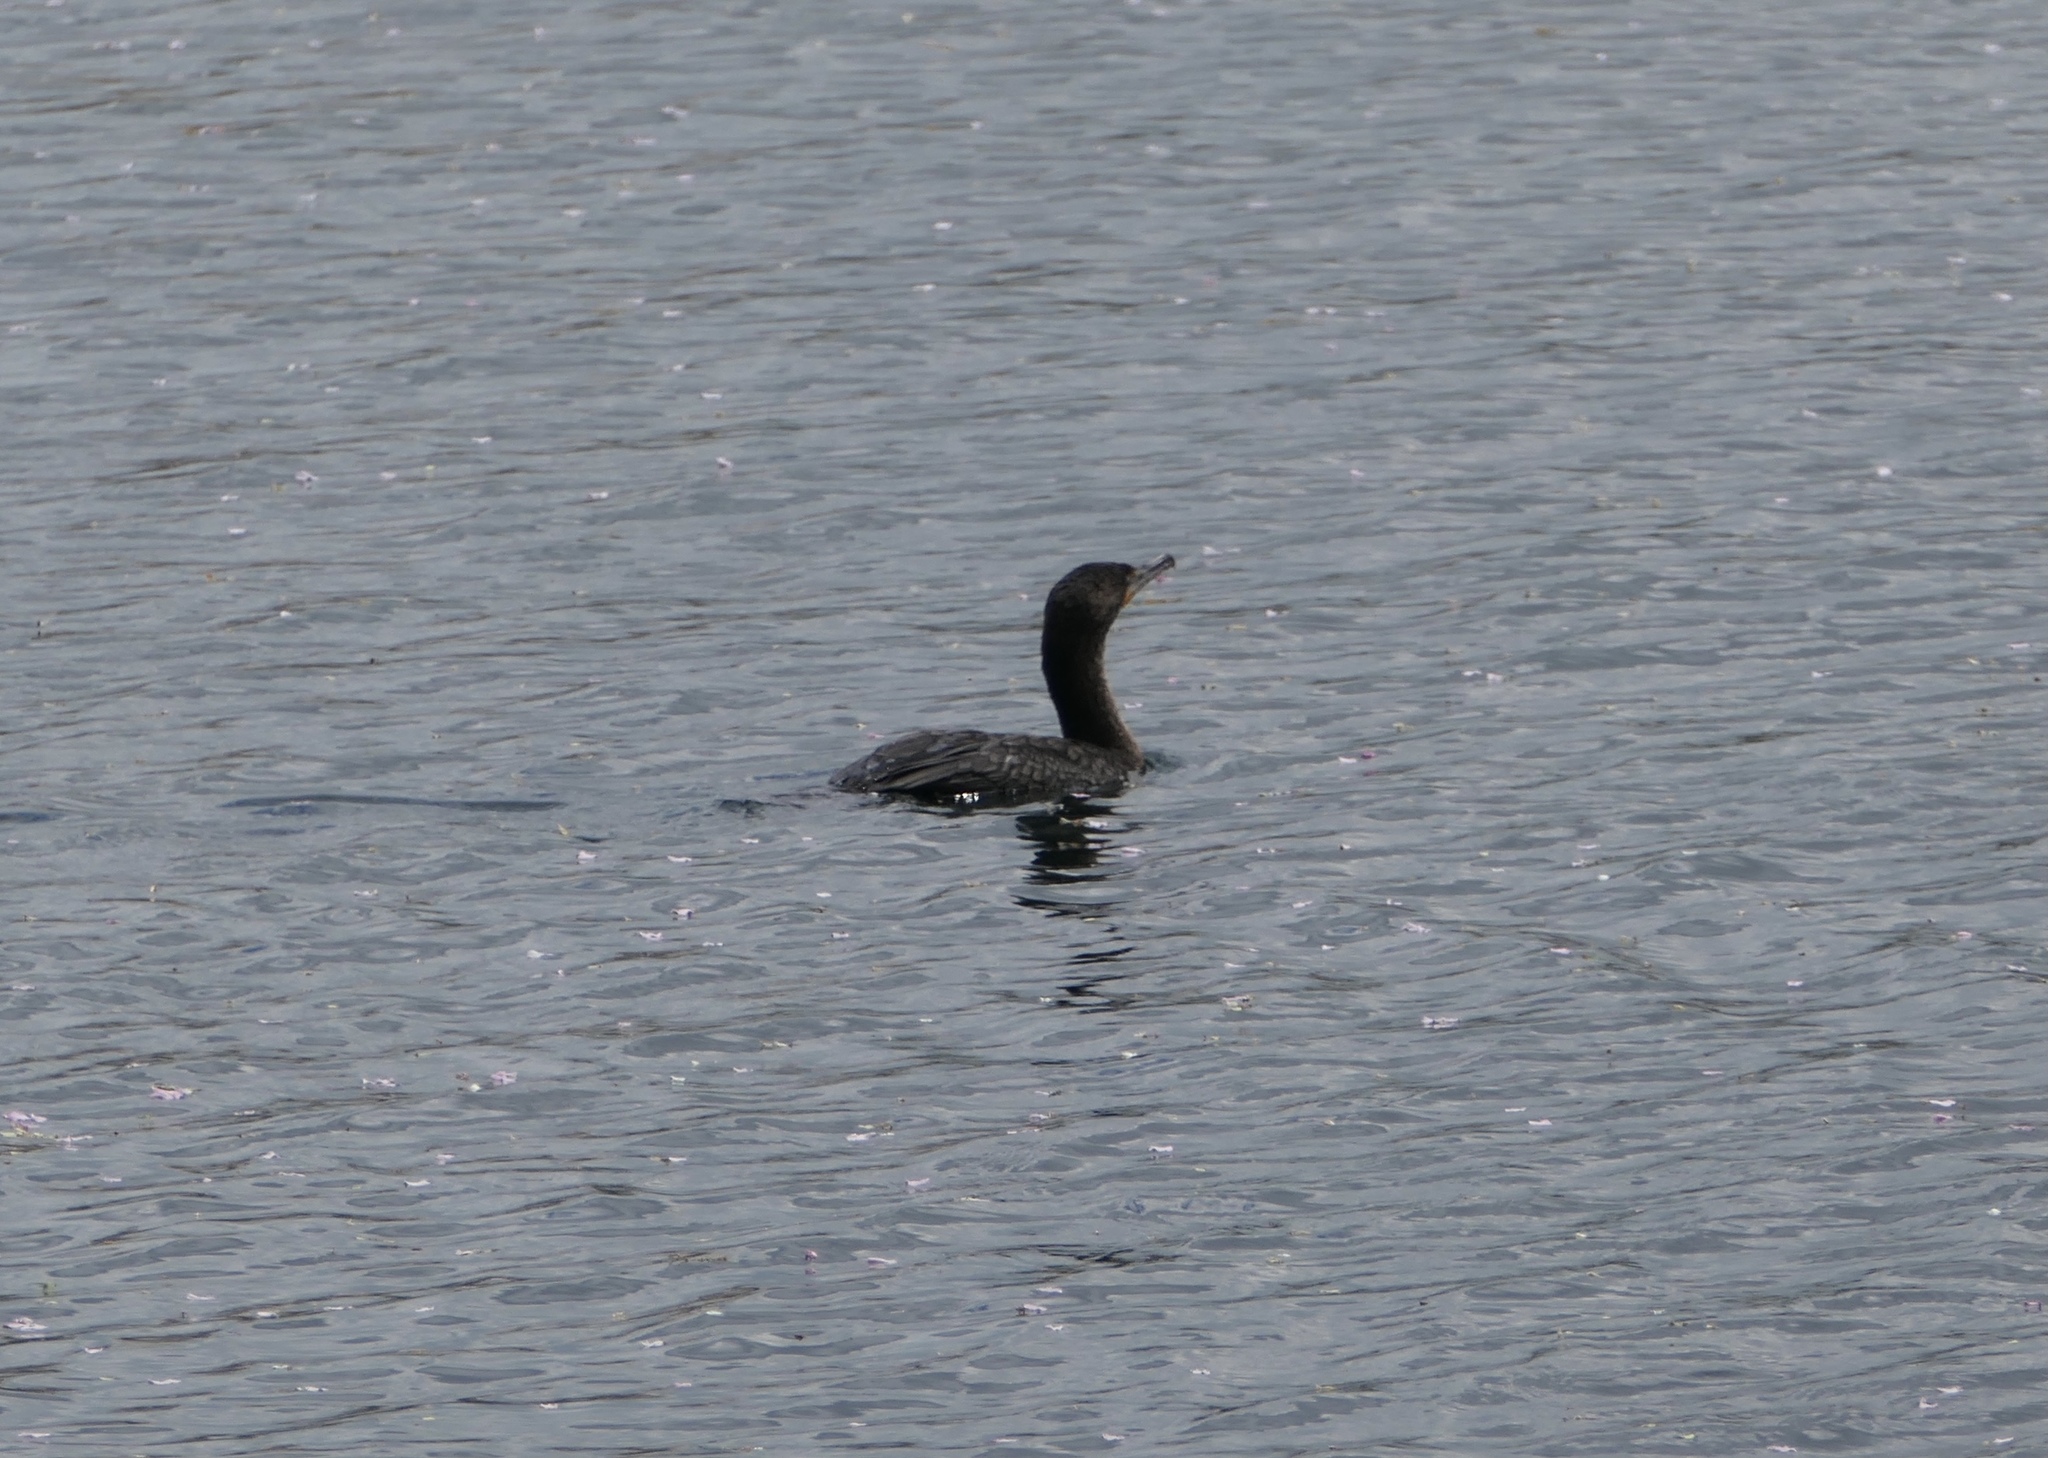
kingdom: Animalia
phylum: Chordata
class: Aves
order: Suliformes
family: Phalacrocoracidae
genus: Phalacrocorax
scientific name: Phalacrocorax auritus
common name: Double-crested cormorant
